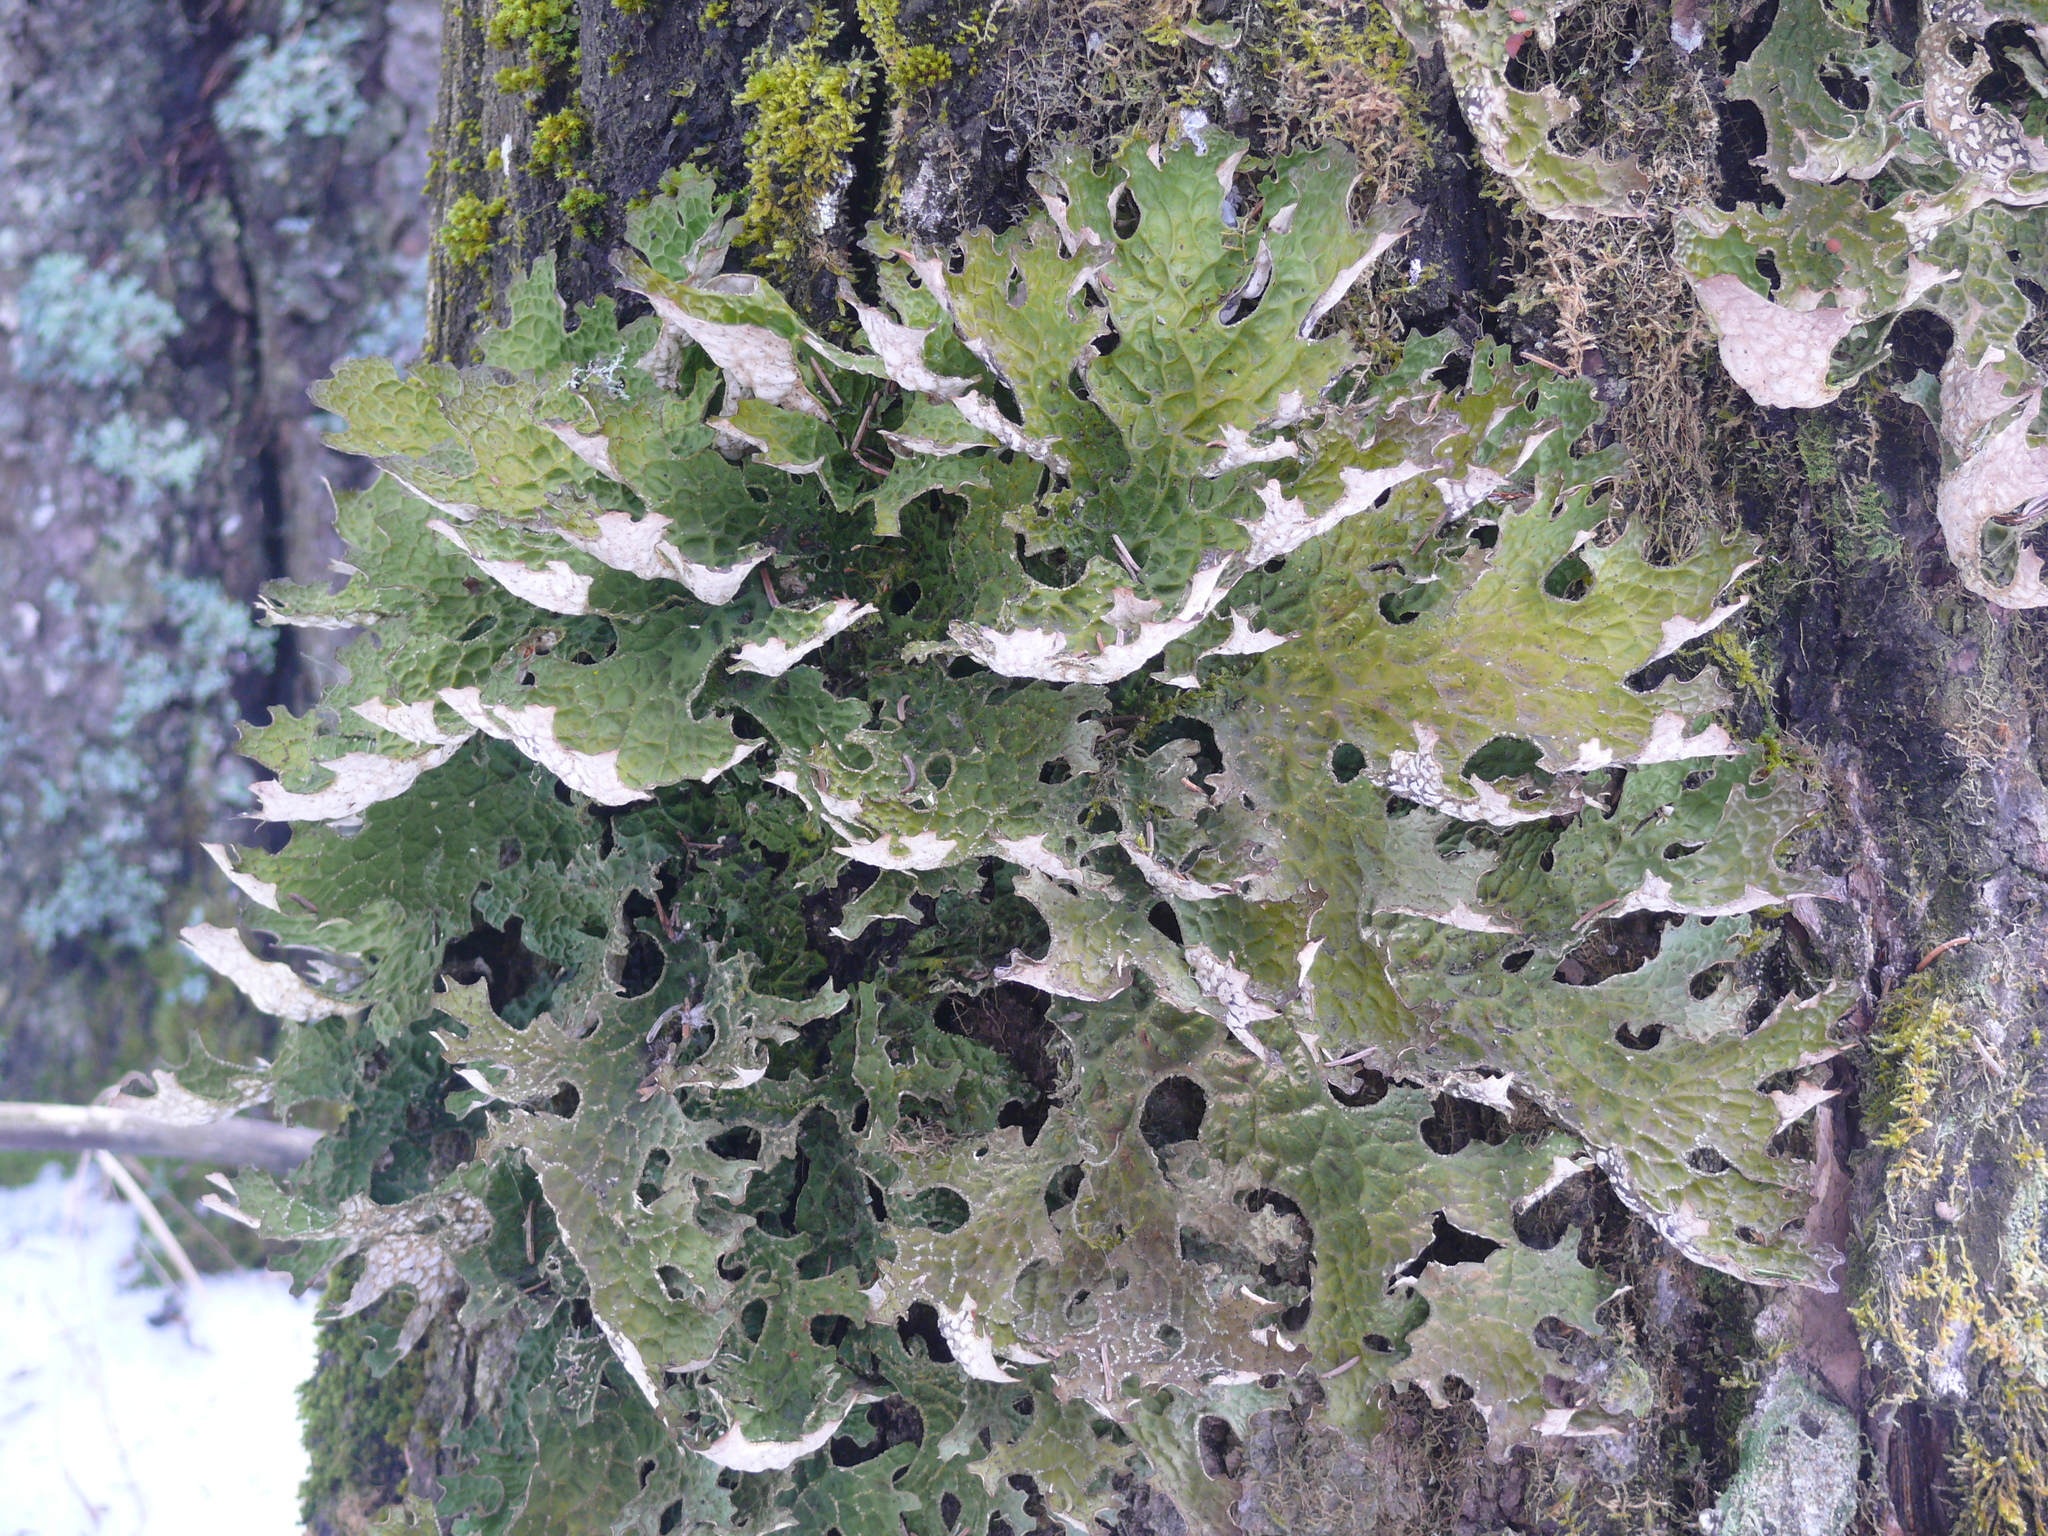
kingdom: Fungi
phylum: Ascomycota
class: Lecanoromycetes
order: Peltigerales
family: Lobariaceae
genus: Lobaria
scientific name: Lobaria pulmonaria
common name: Lungwort
